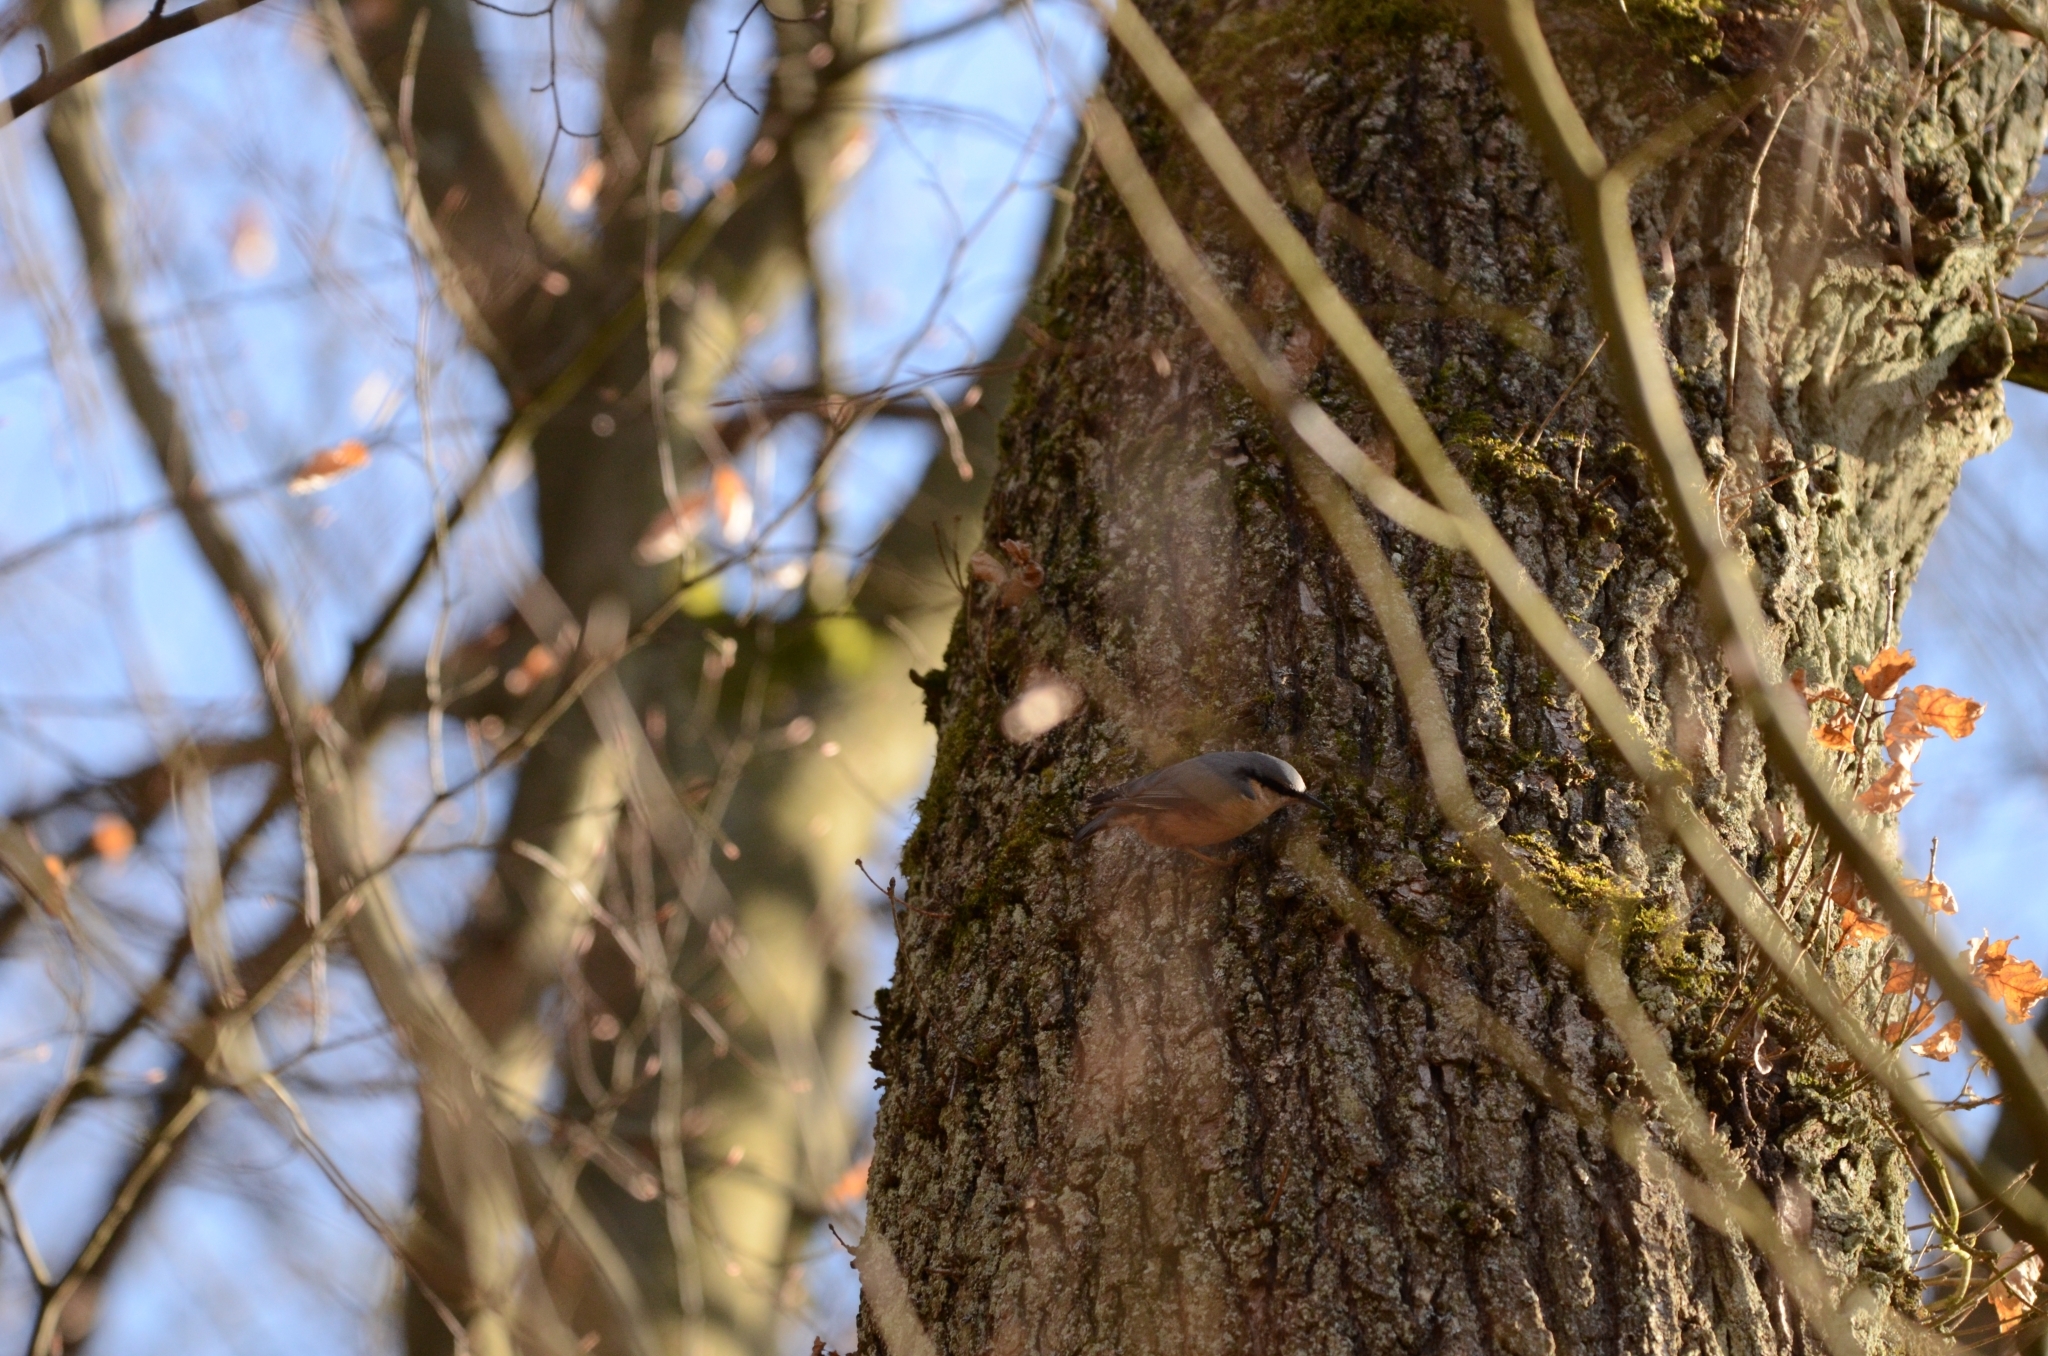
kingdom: Animalia
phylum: Chordata
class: Aves
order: Passeriformes
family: Sittidae
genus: Sitta
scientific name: Sitta europaea
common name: Eurasian nuthatch
